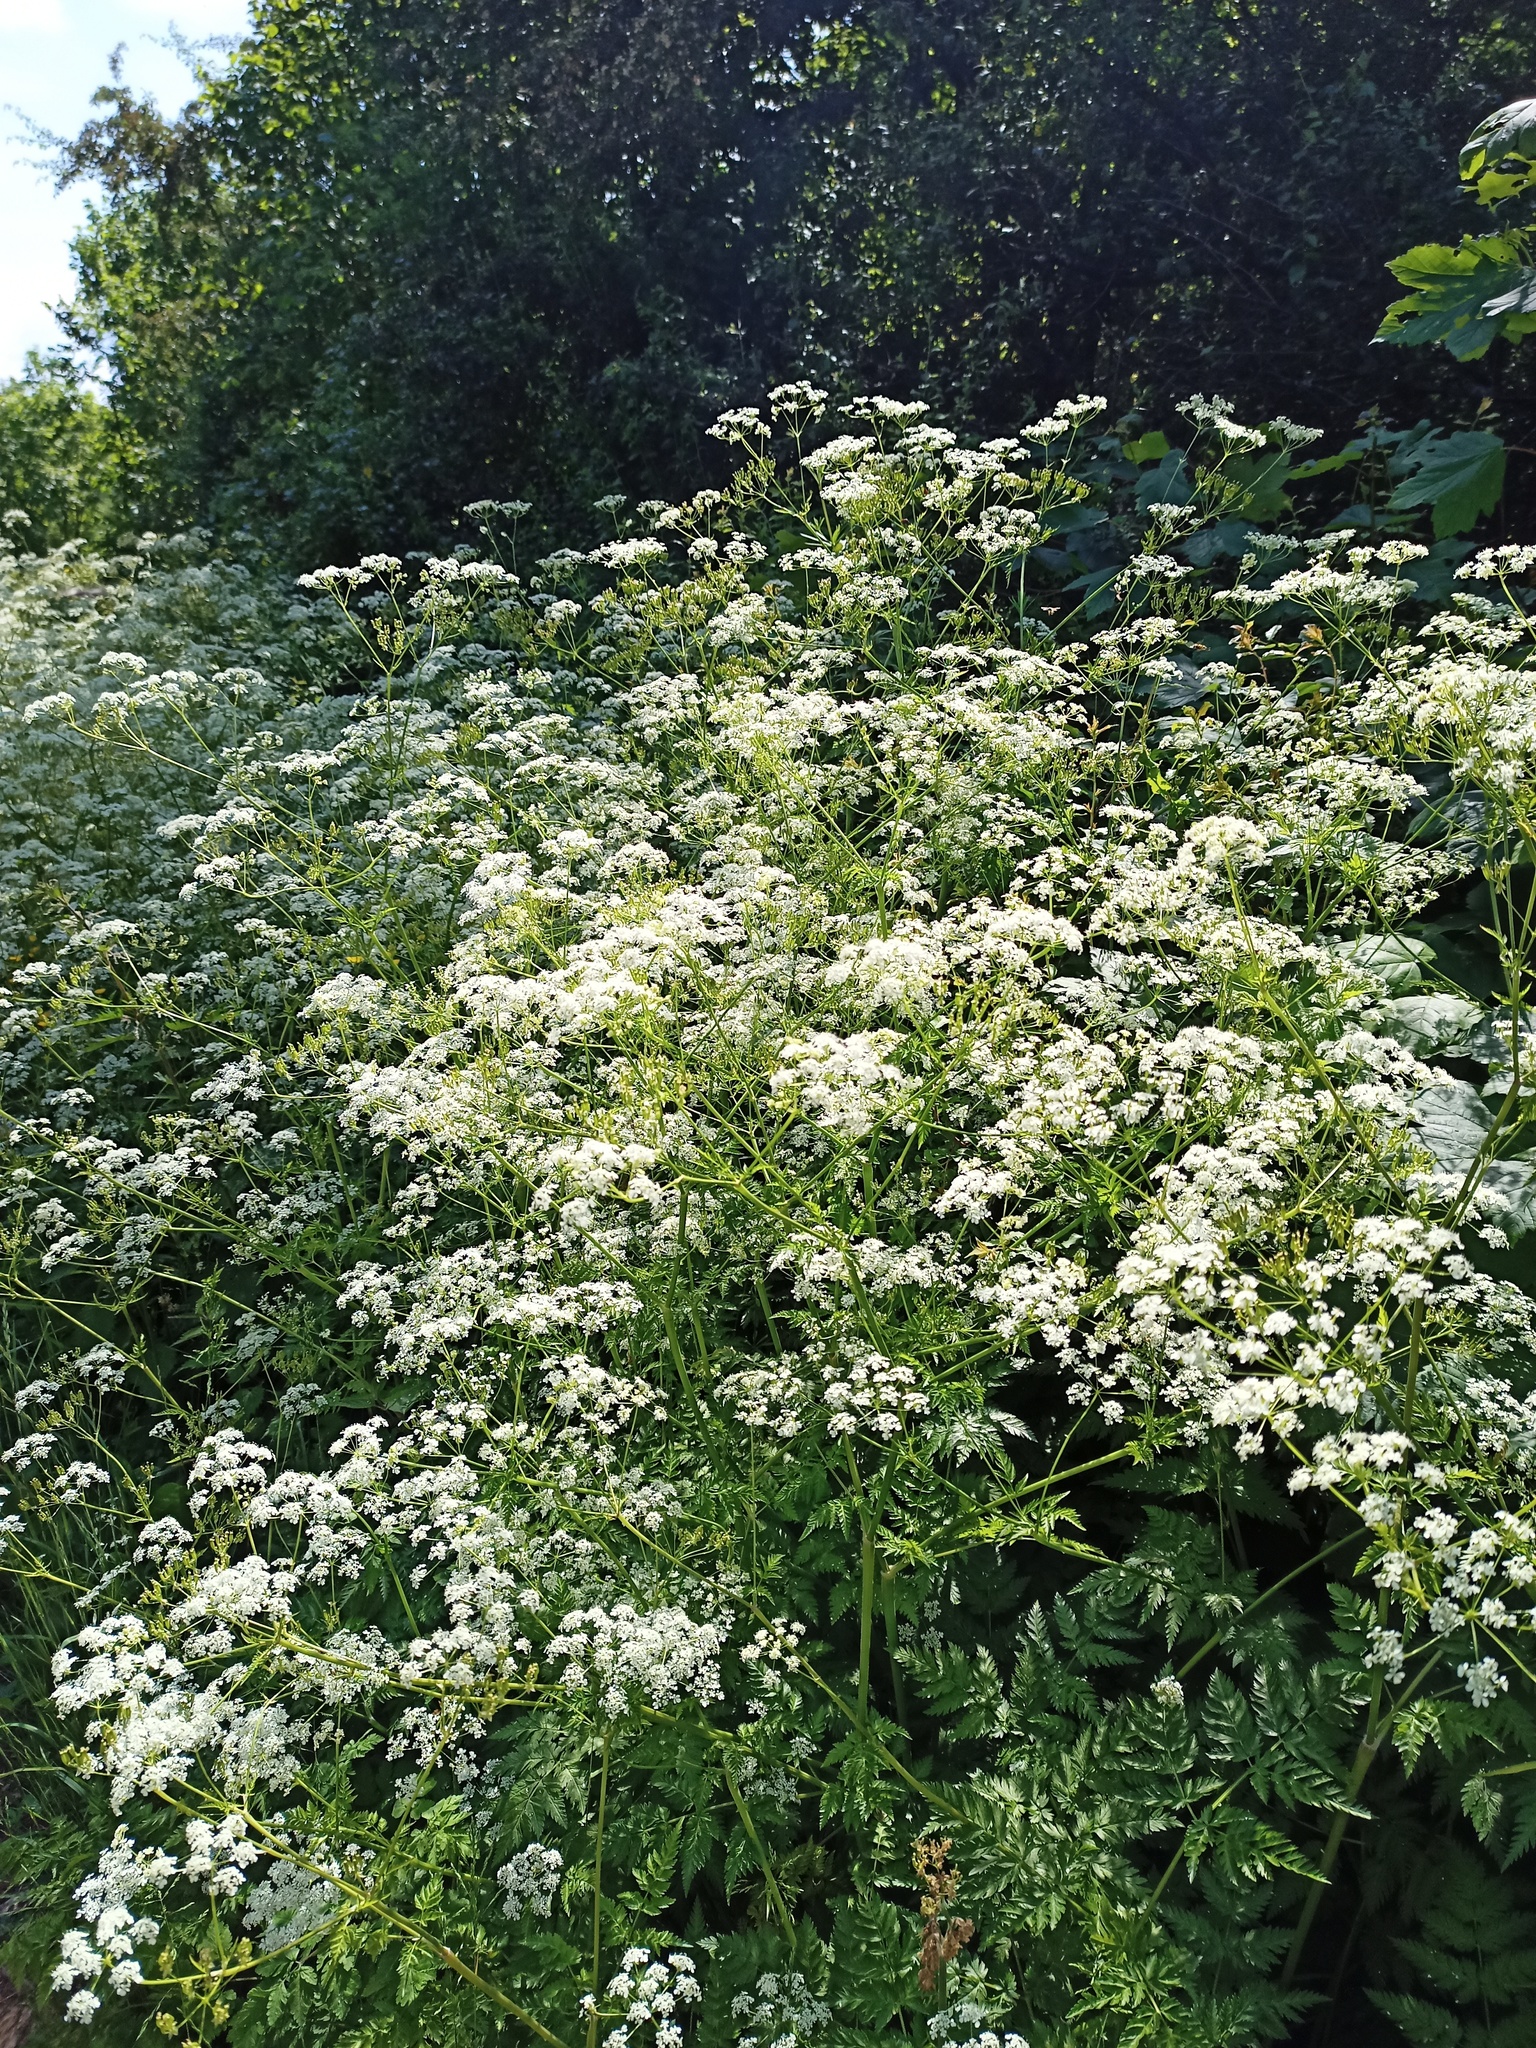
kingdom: Plantae
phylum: Tracheophyta
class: Magnoliopsida
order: Apiales
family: Apiaceae
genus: Anthriscus
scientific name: Anthriscus sylvestris
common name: Cow parsley
